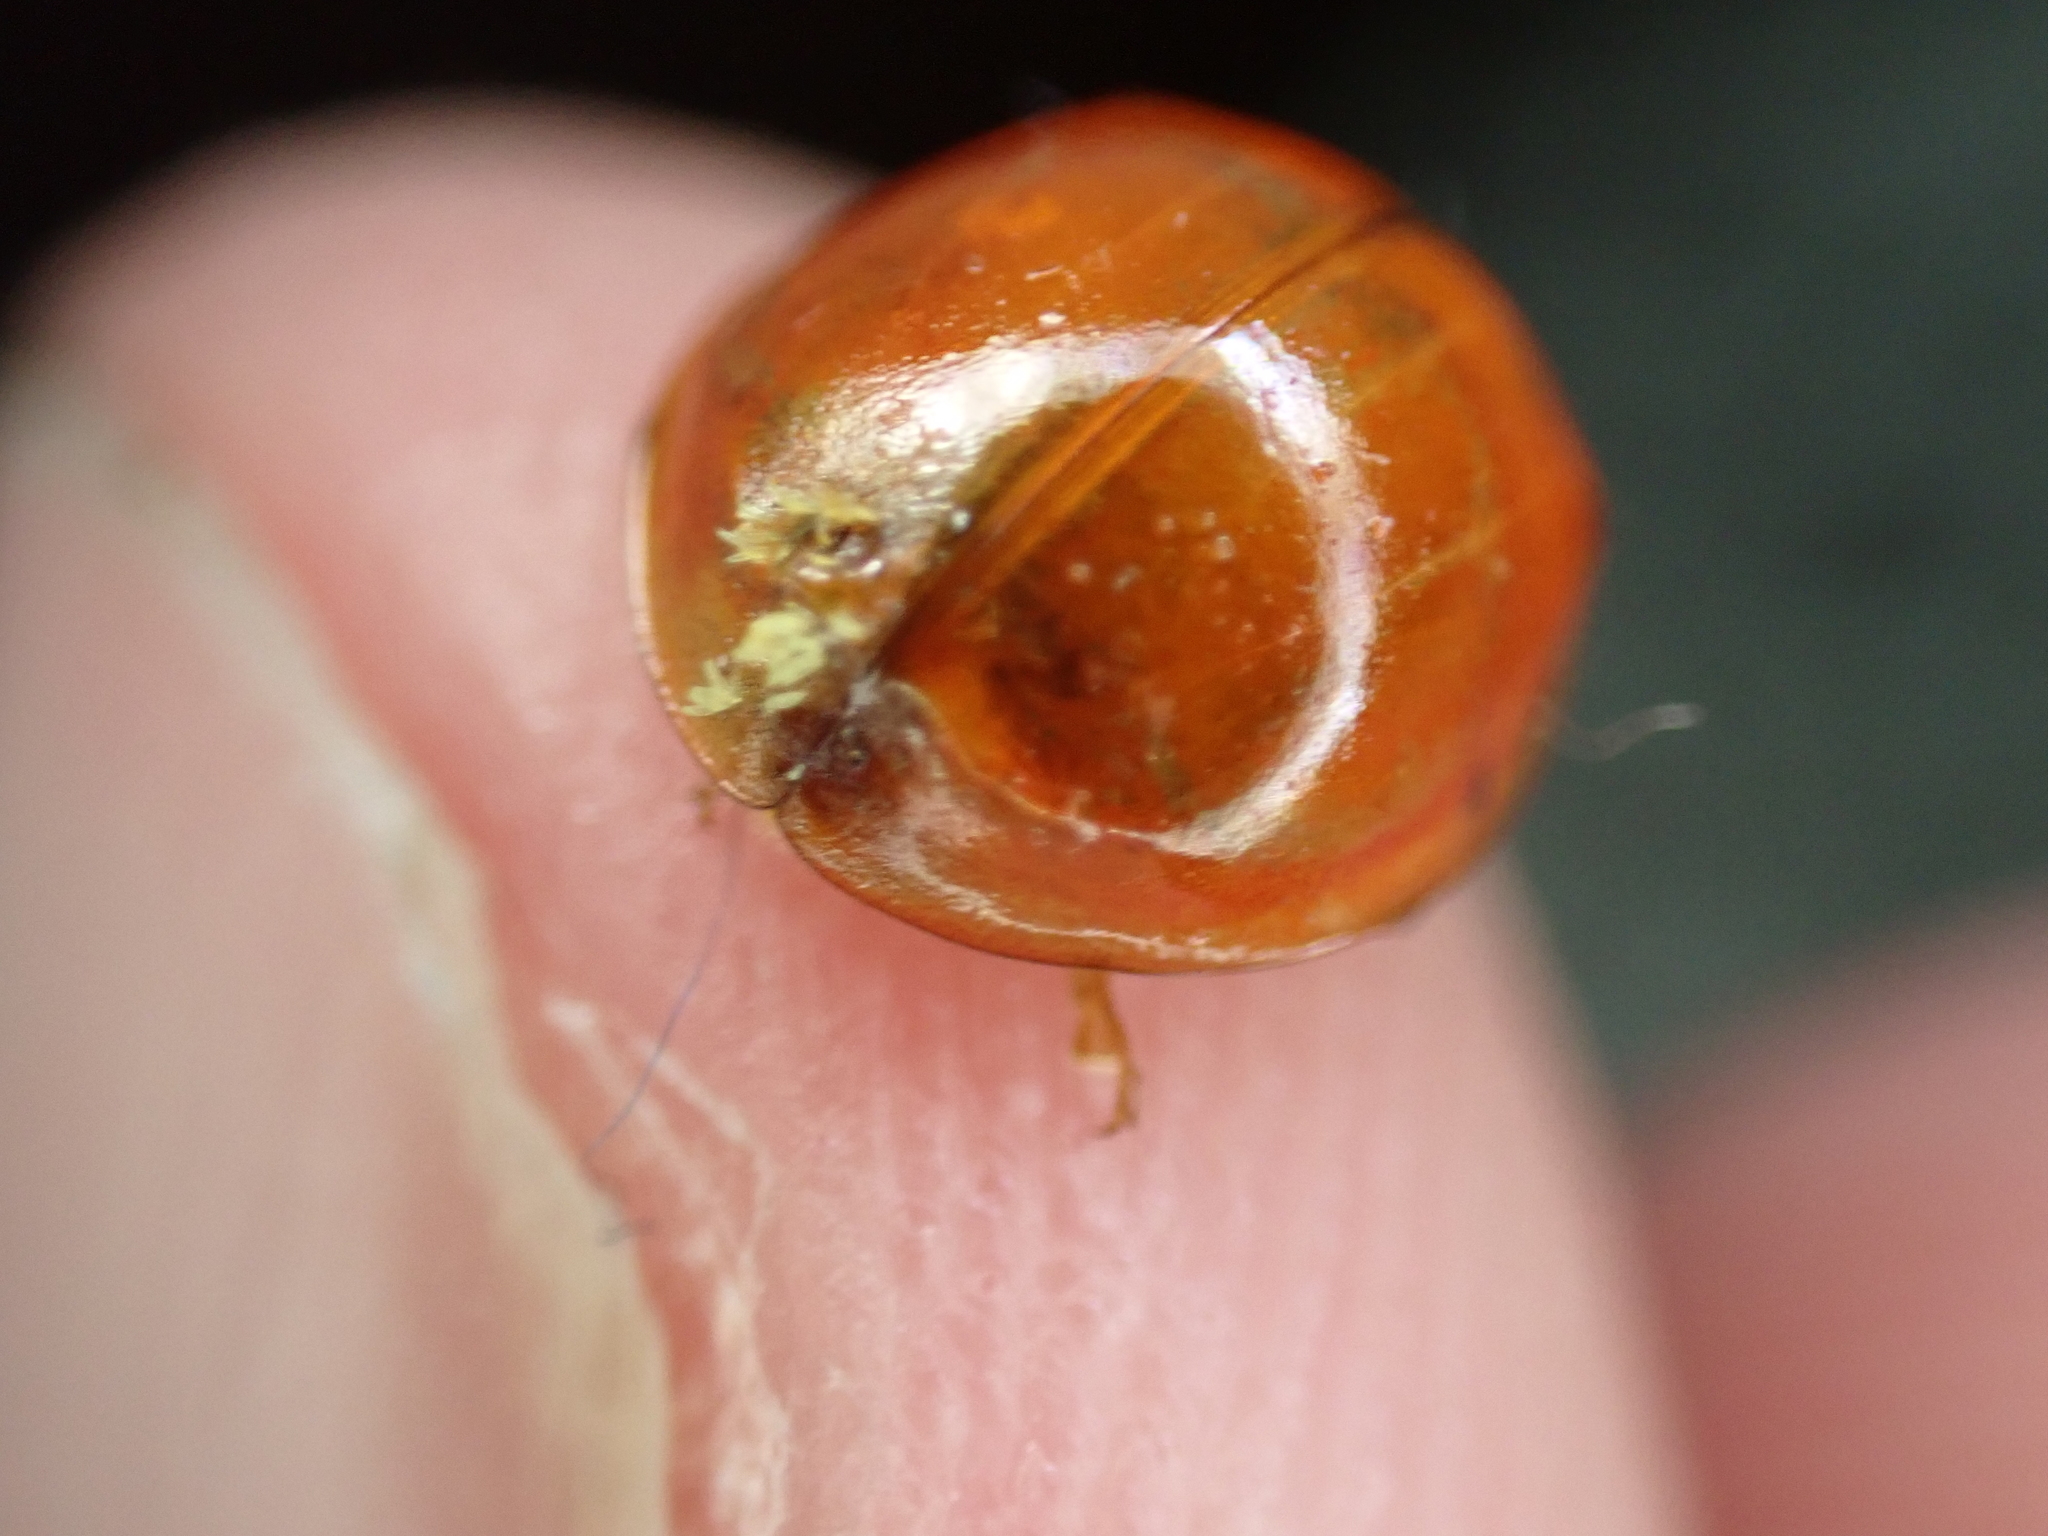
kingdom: Fungi
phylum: Ascomycota
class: Laboulbeniomycetes
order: Laboulbeniales
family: Laboulbeniaceae
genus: Hesperomyces
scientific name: Hesperomyces harmoniae
